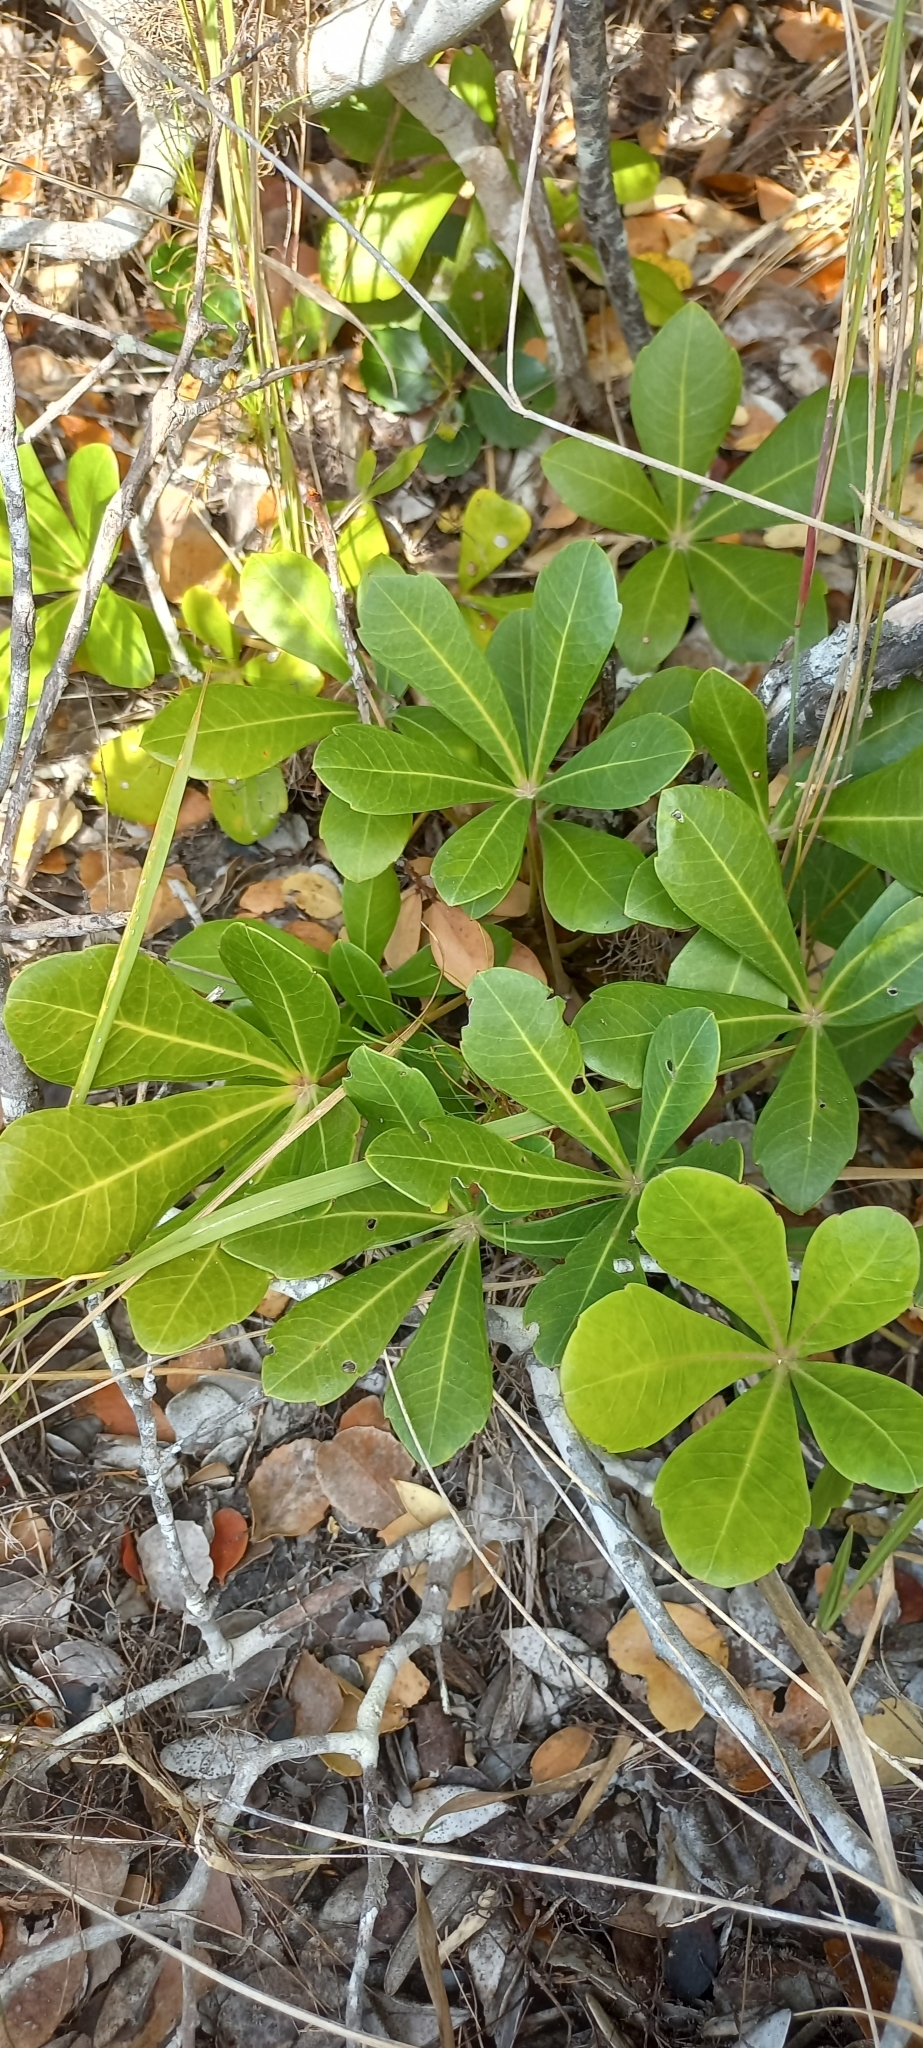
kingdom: Plantae
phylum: Tracheophyta
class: Magnoliopsida
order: Apiales
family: Araliaceae
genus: Cussonia
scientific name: Cussonia thyrsiflora
